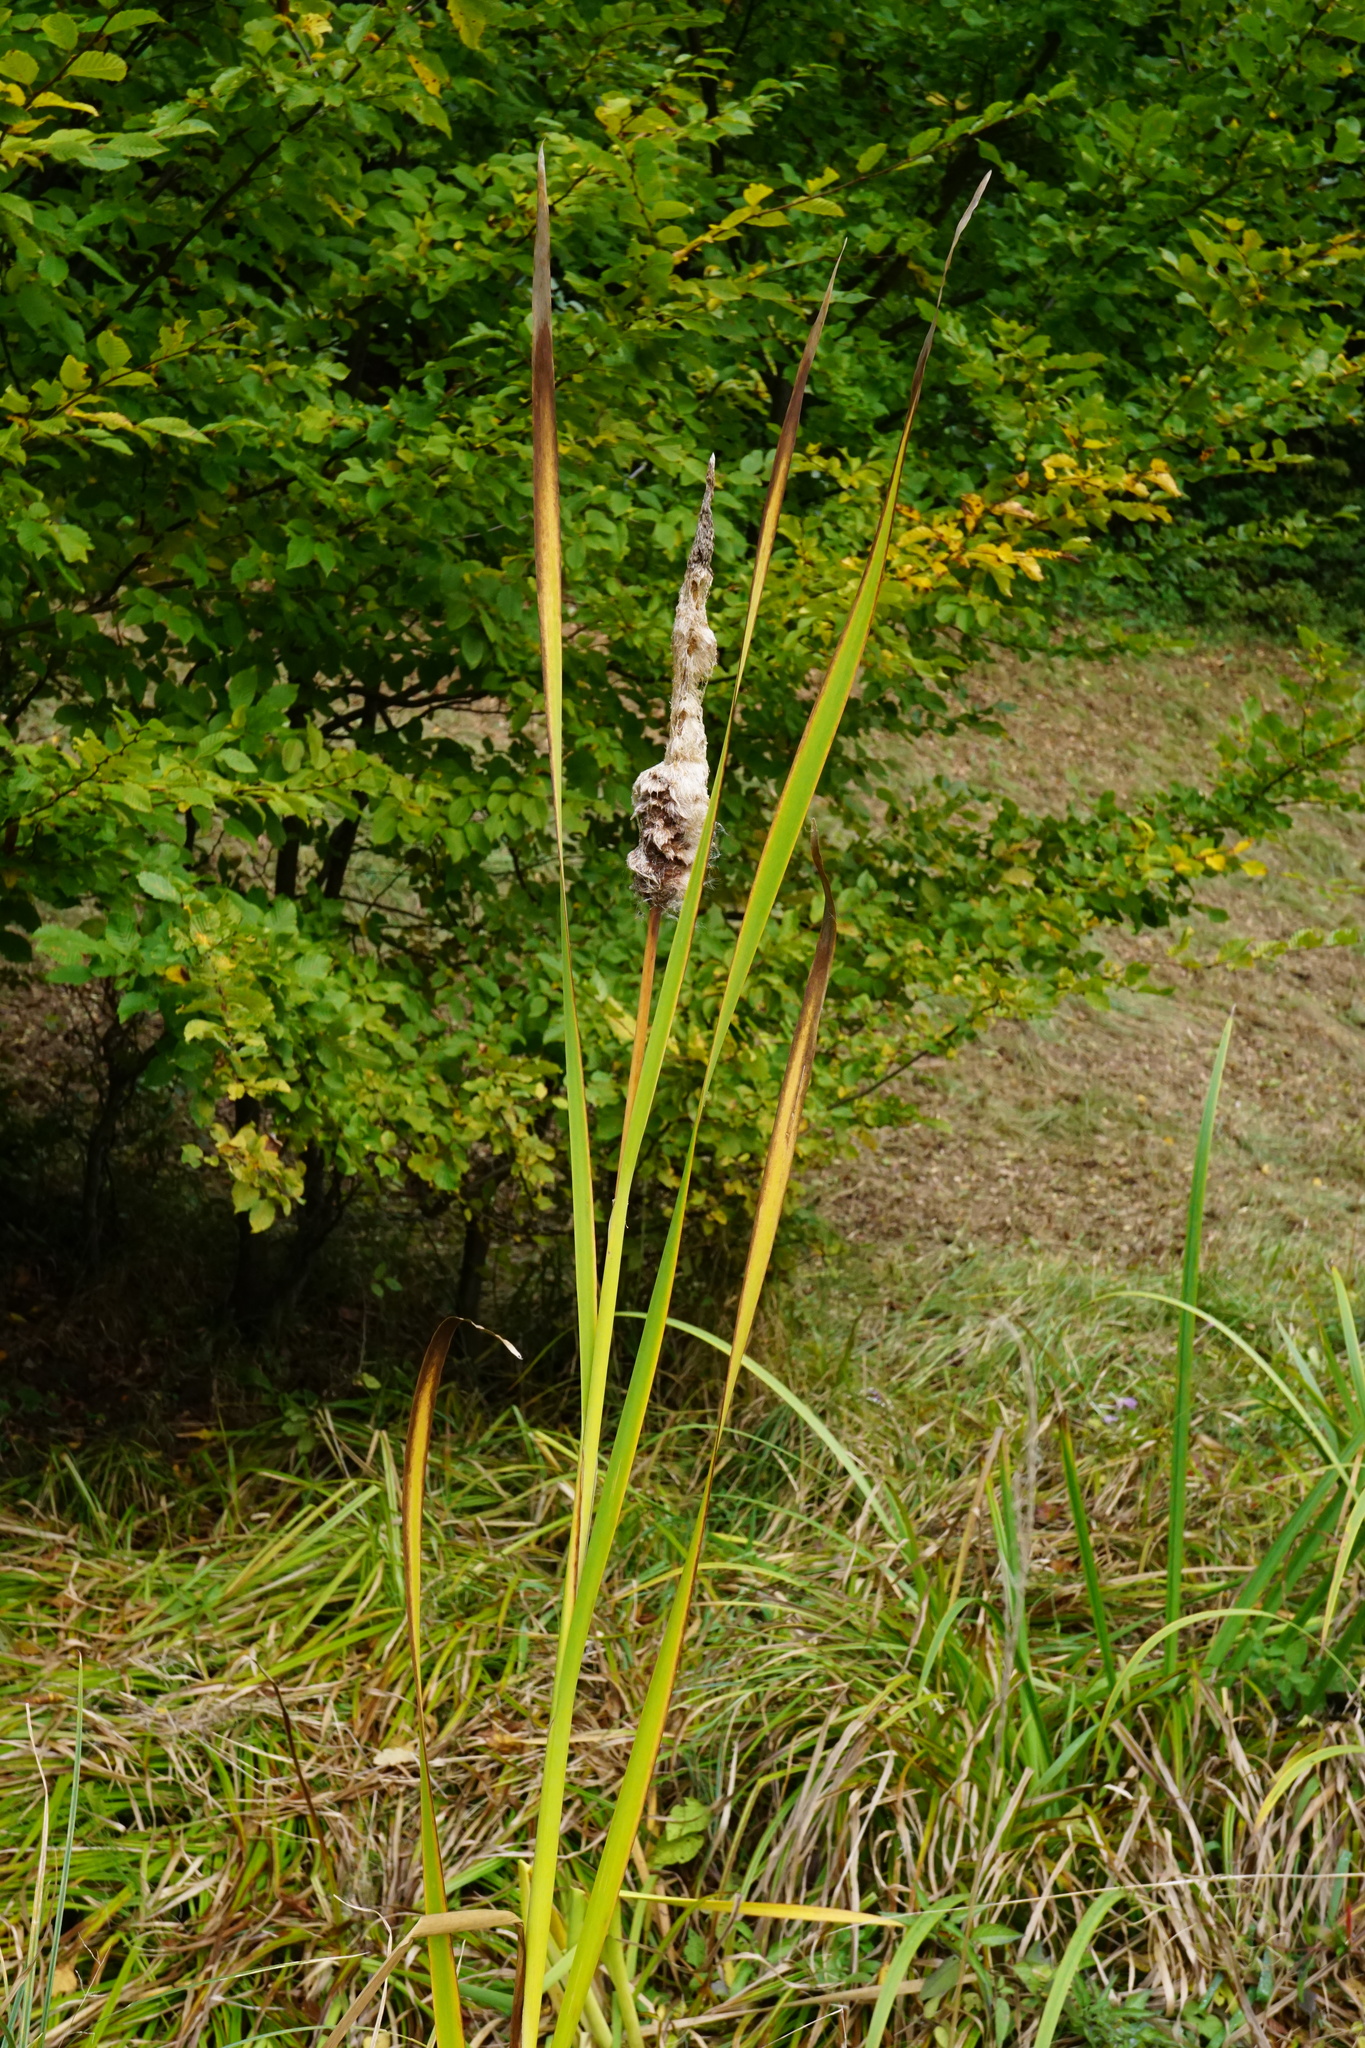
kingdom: Plantae
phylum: Tracheophyta
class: Liliopsida
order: Poales
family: Typhaceae
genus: Typha
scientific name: Typha shuttleworthii
